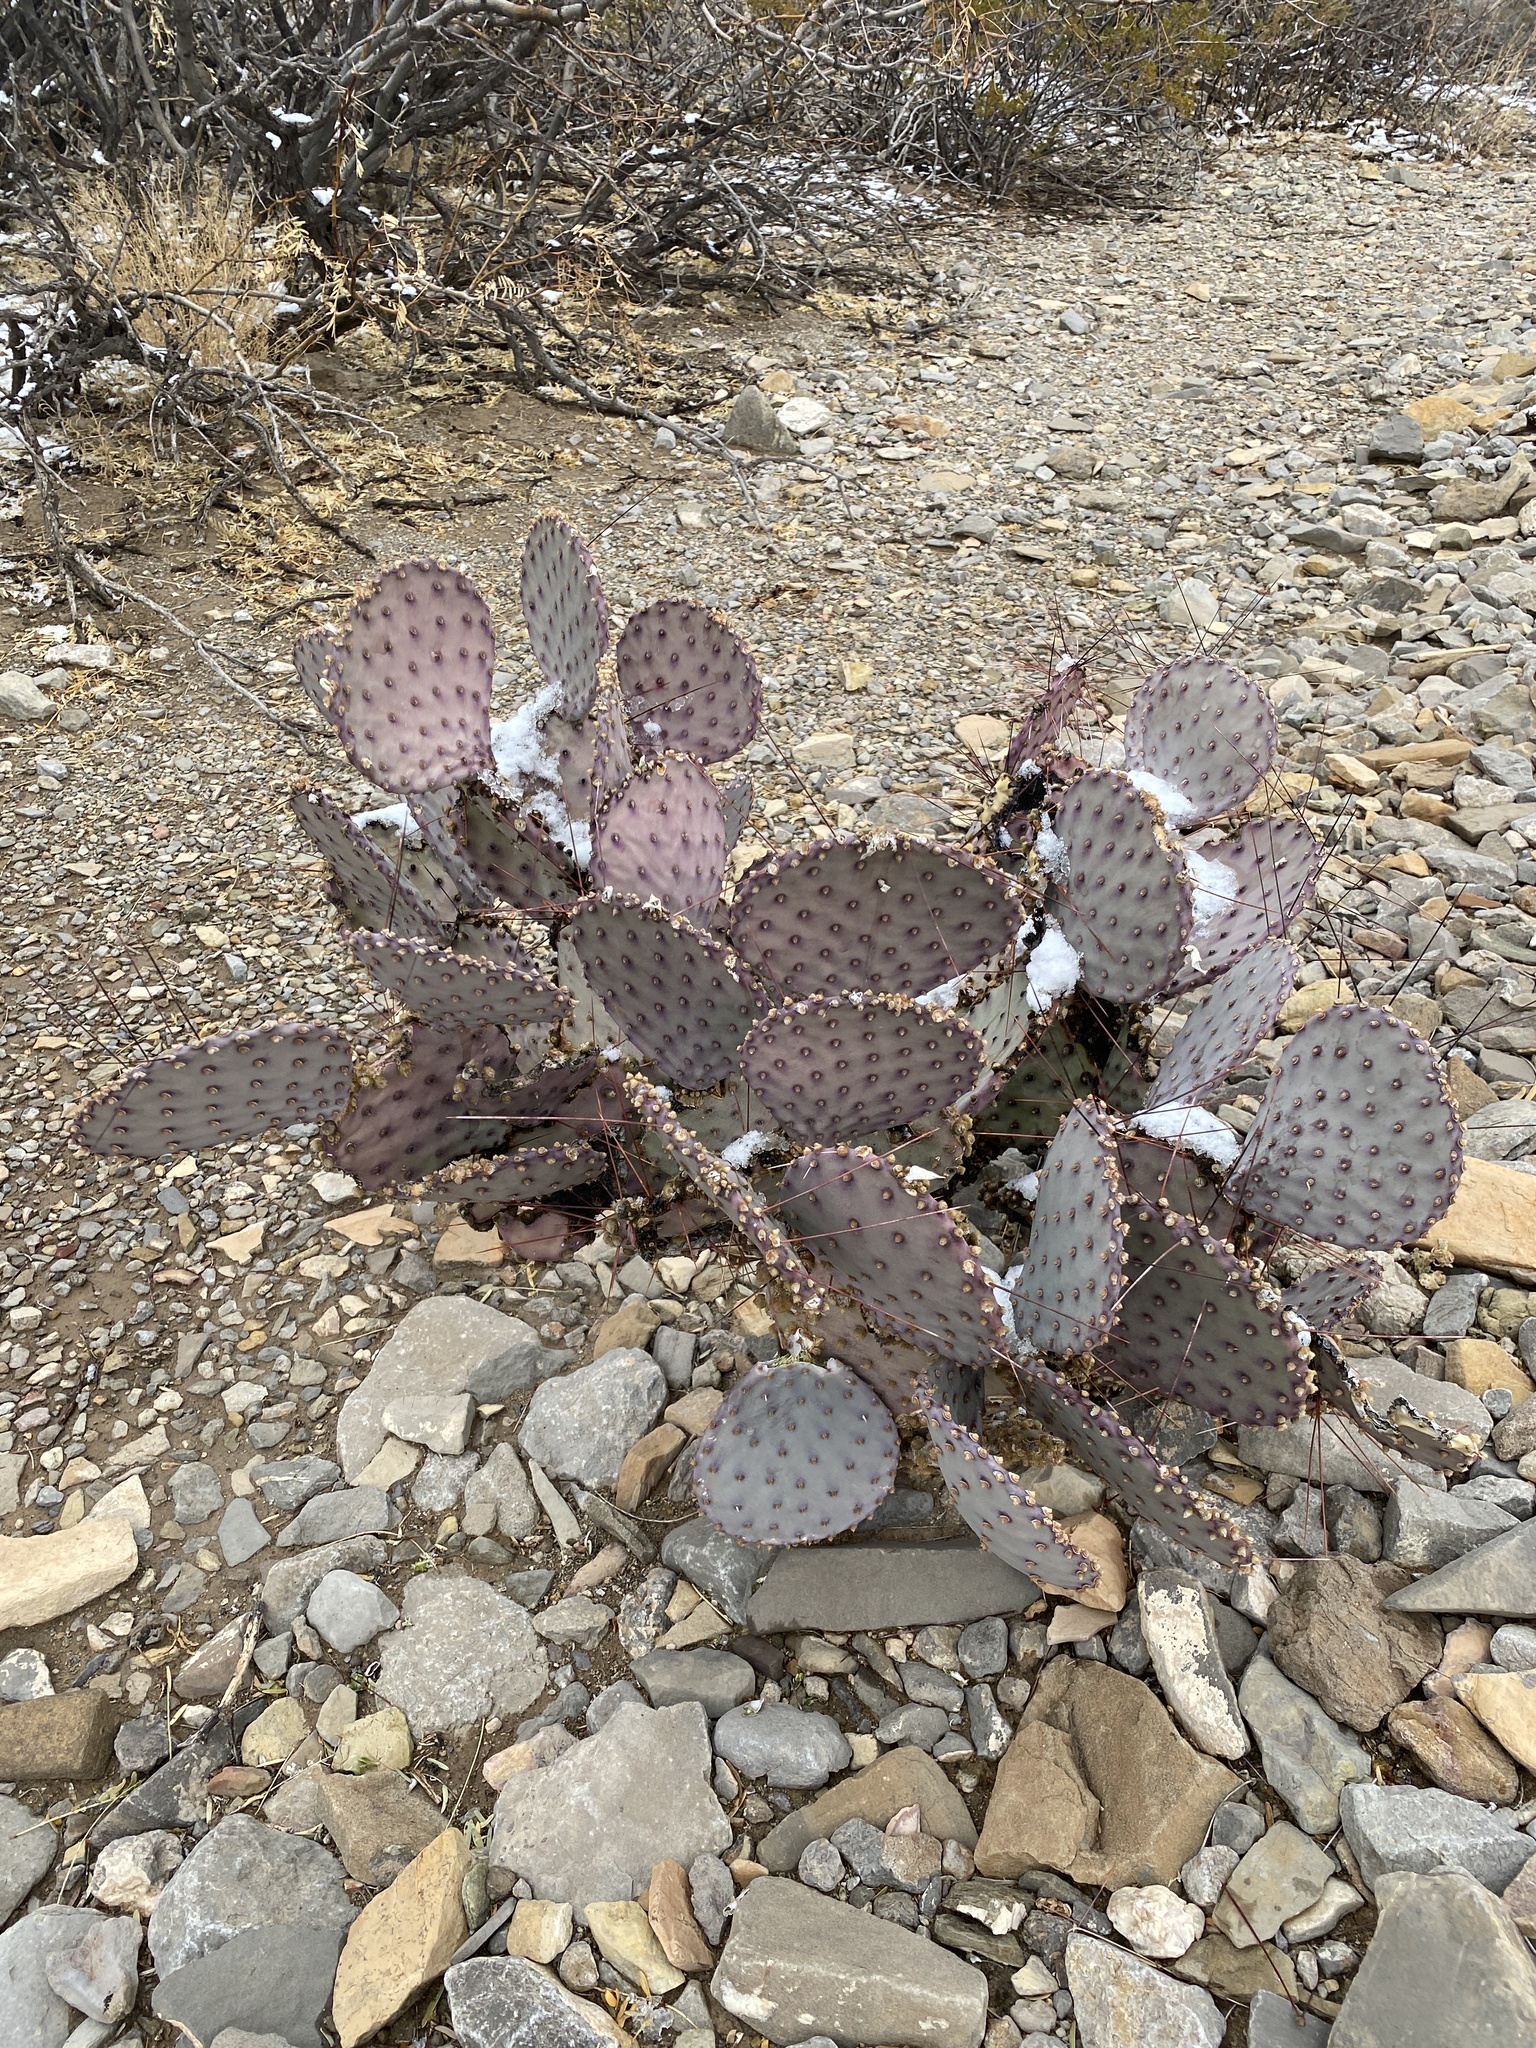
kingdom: Plantae
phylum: Tracheophyta
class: Magnoliopsida
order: Caryophyllales
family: Cactaceae
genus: Opuntia
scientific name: Opuntia macrocentra
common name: Purple prickly-pear
